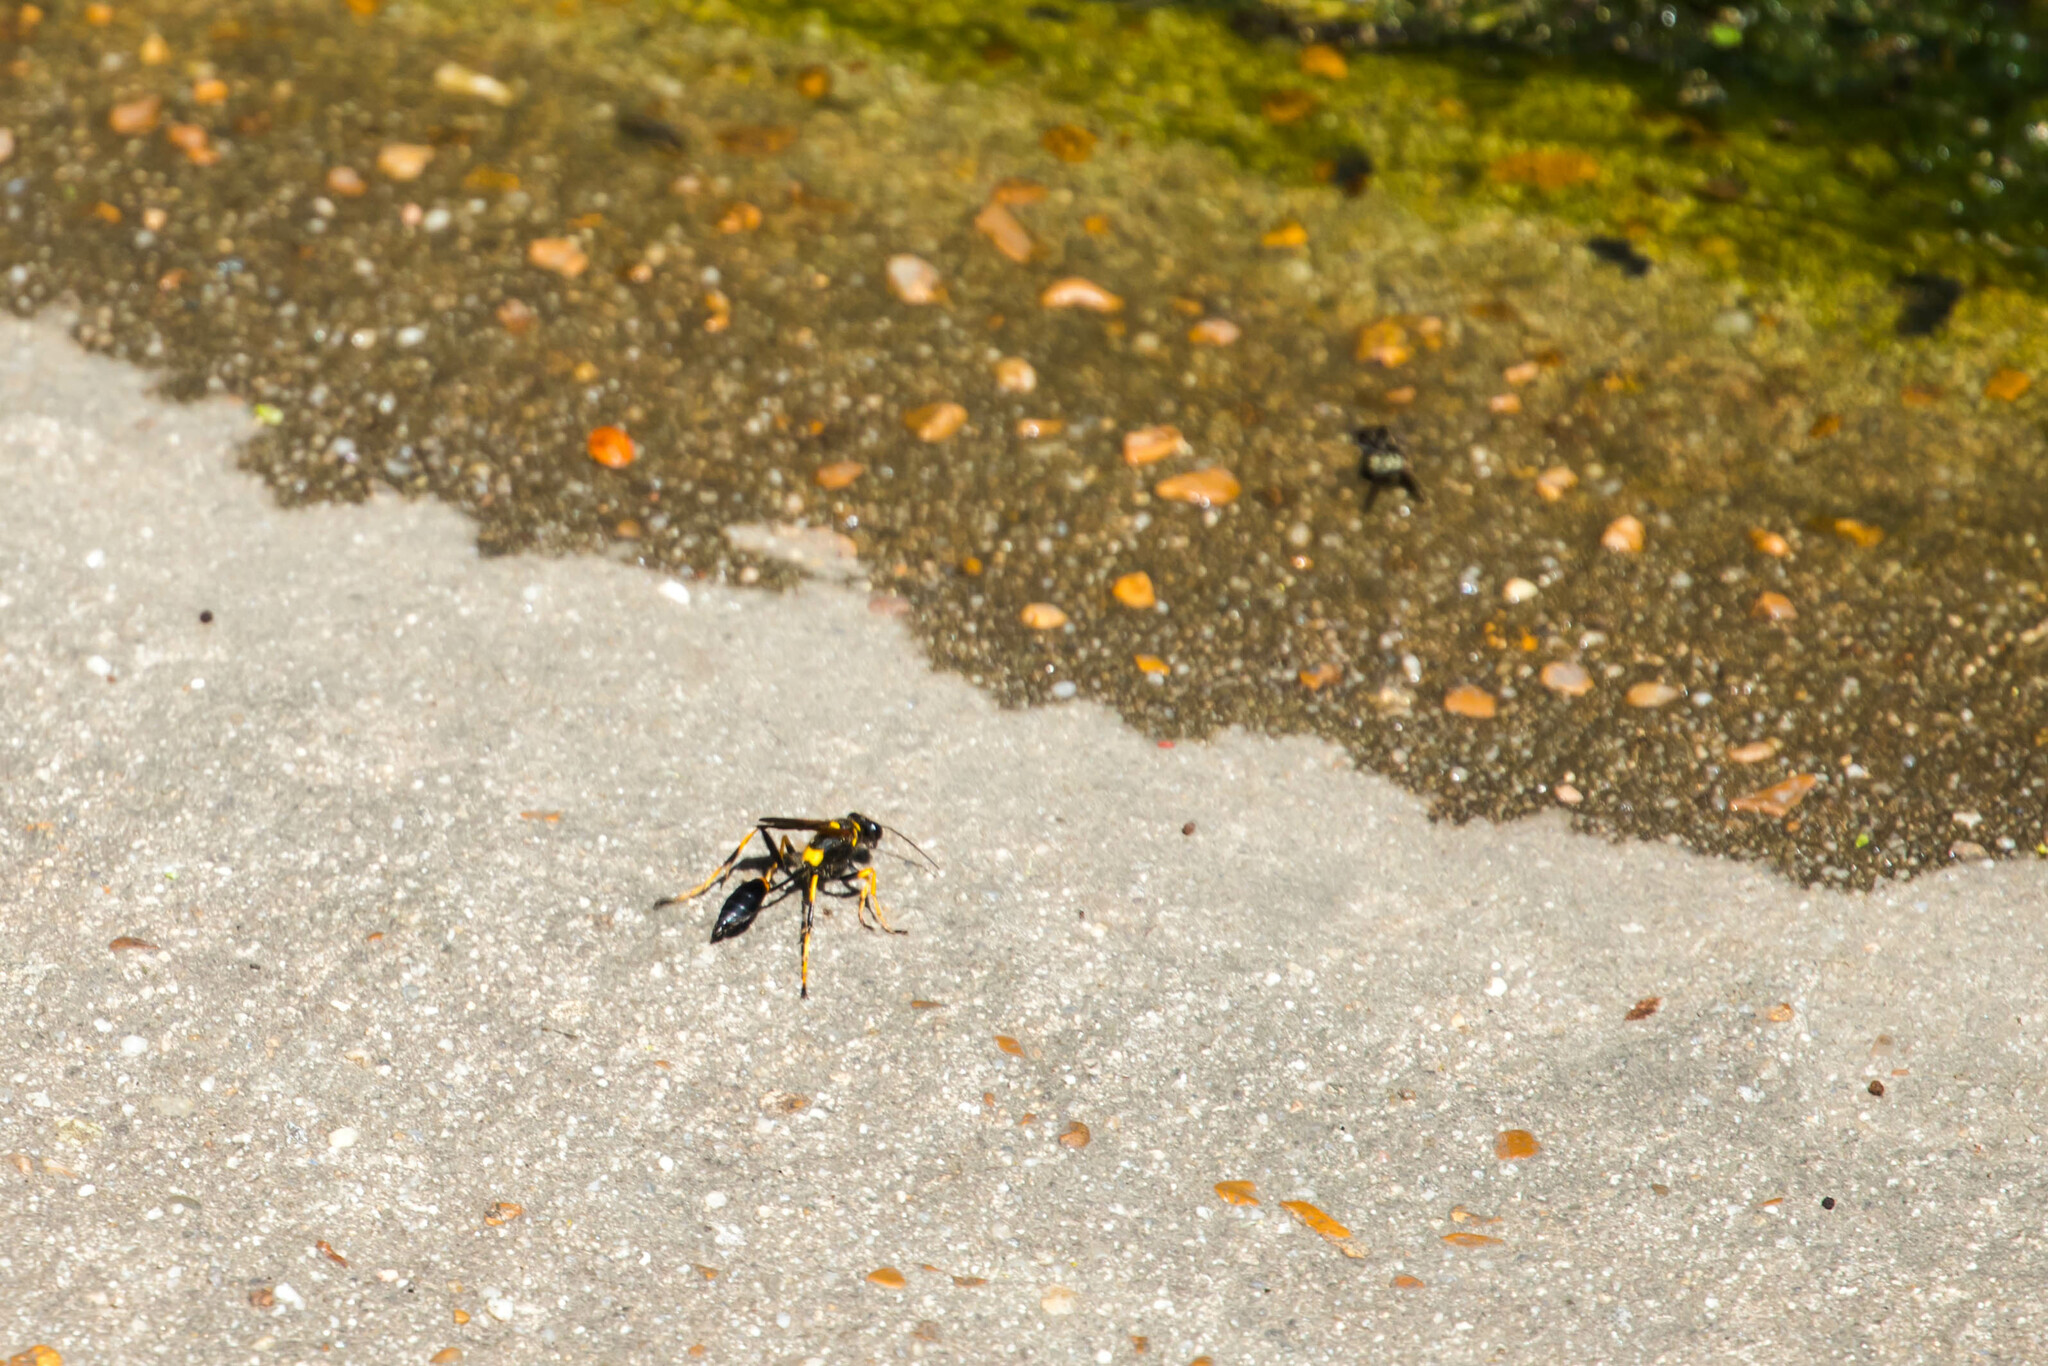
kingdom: Animalia
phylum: Arthropoda
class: Insecta
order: Hymenoptera
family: Sphecidae
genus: Sceliphron
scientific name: Sceliphron caementarium
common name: Mud dauber
